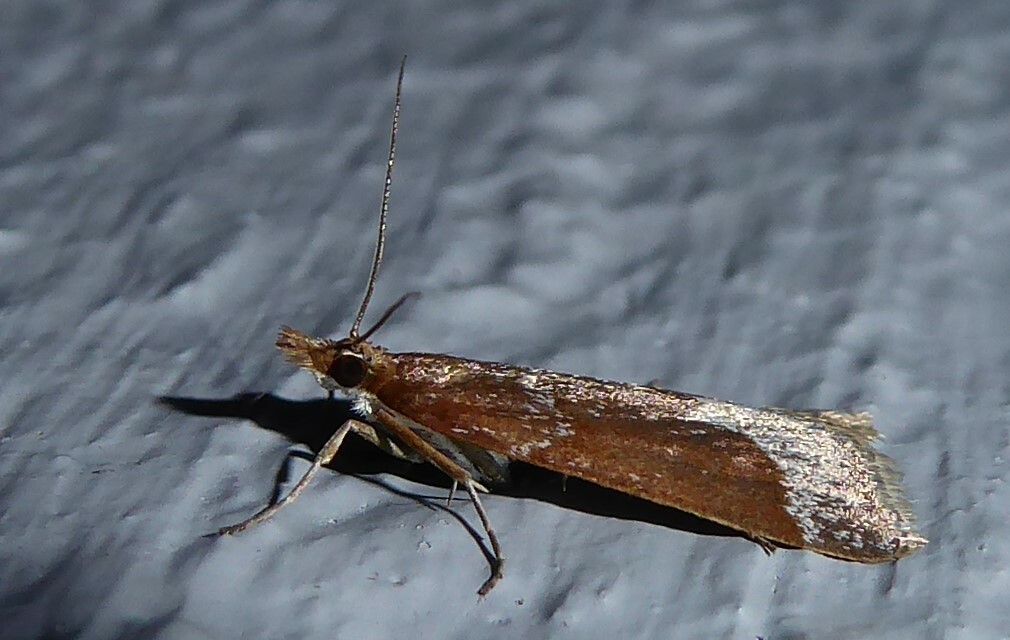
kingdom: Animalia
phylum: Arthropoda
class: Insecta
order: Lepidoptera
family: Crambidae
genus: Eudonia
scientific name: Eudonia feredayi
